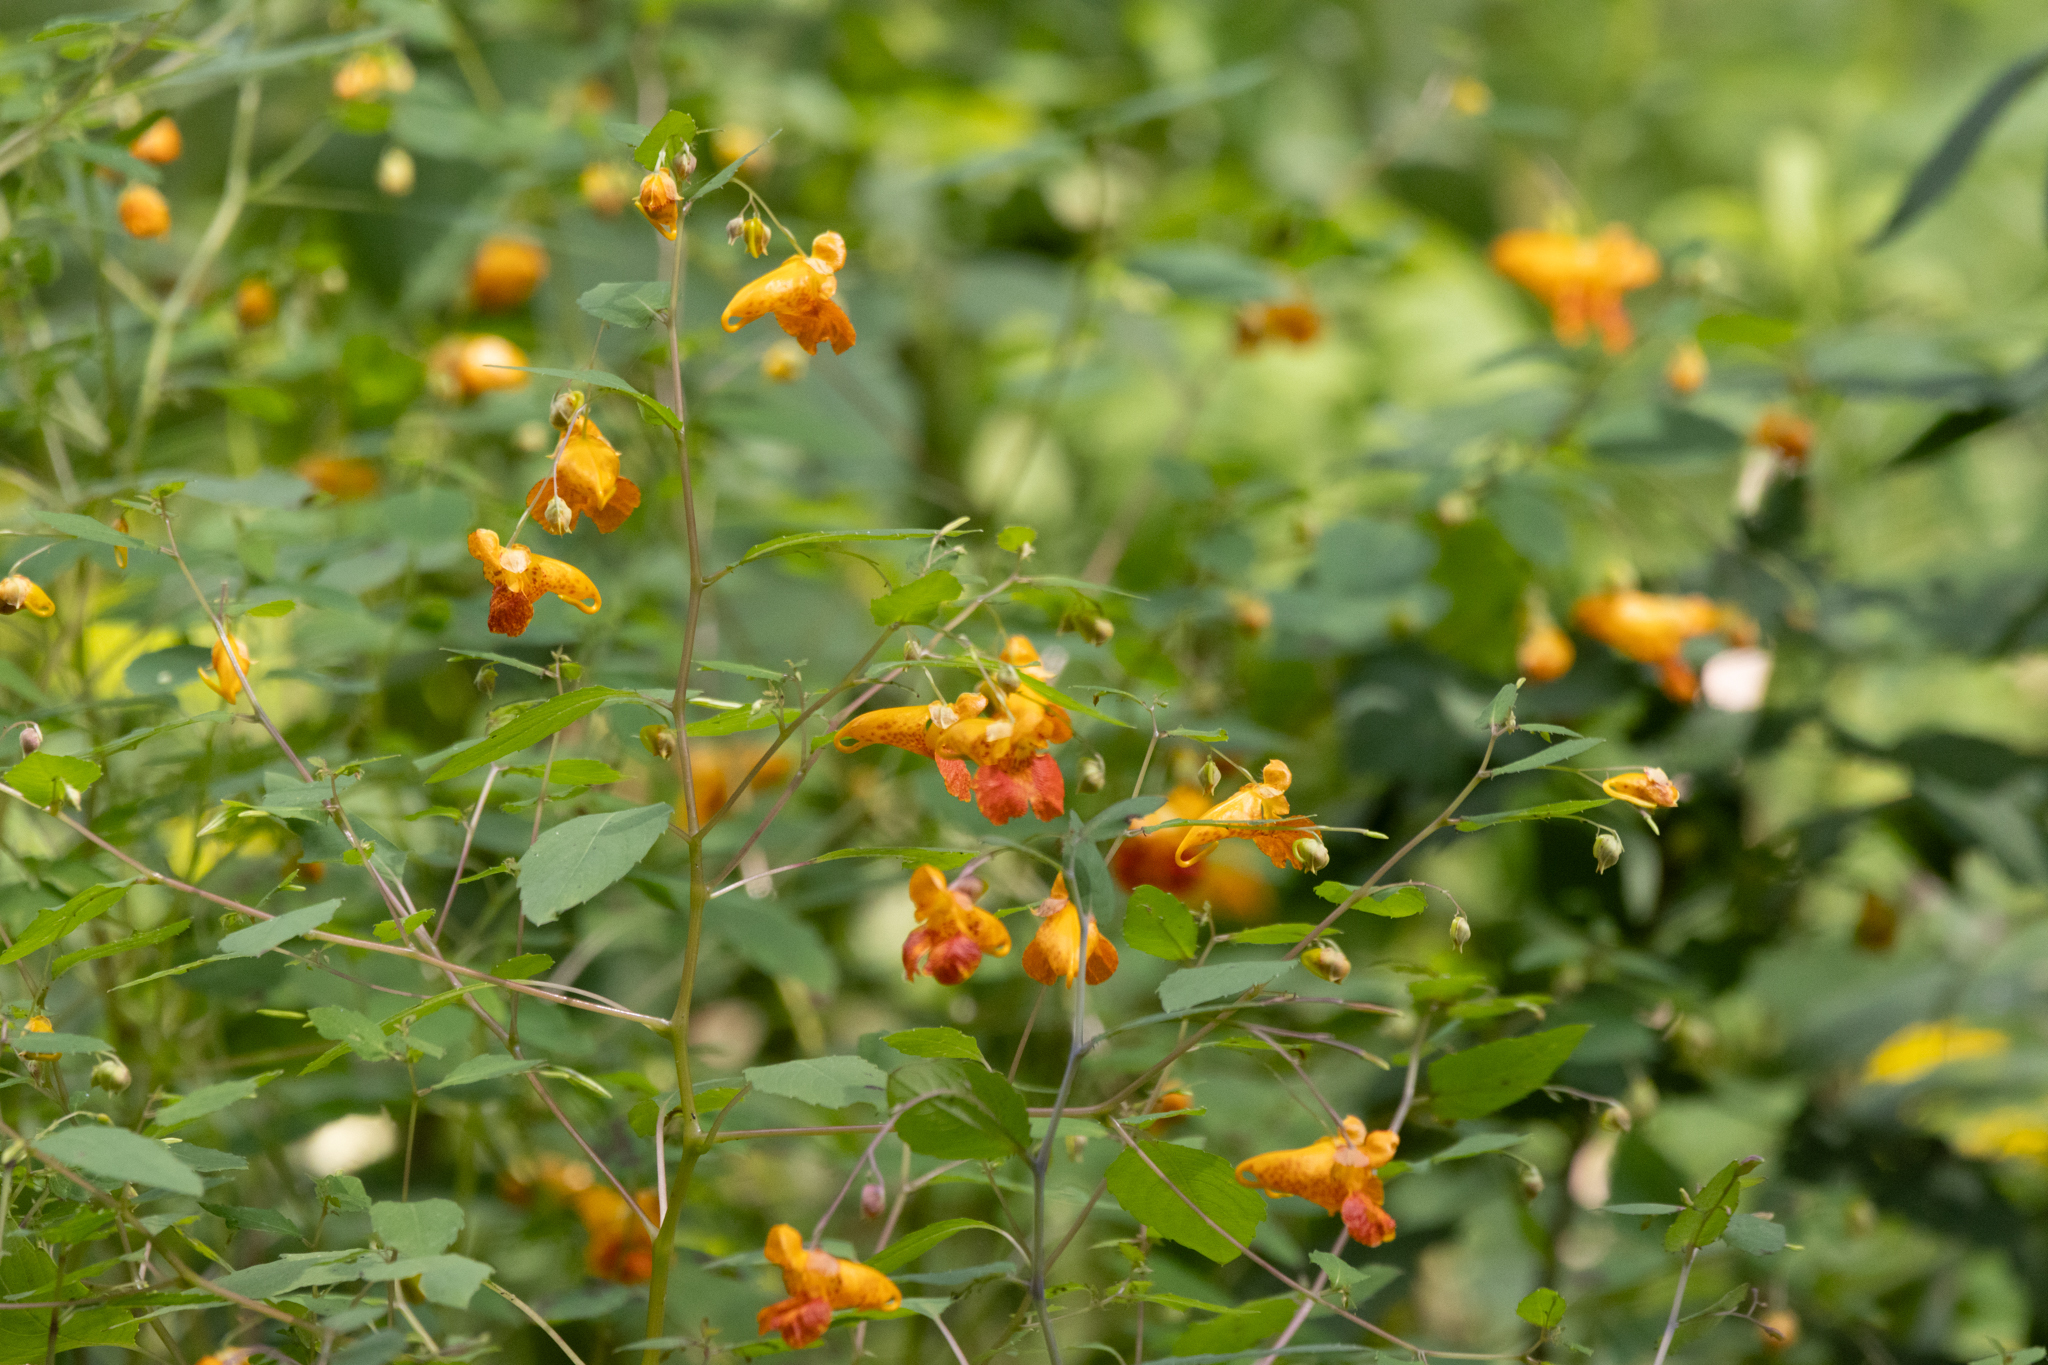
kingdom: Plantae
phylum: Tracheophyta
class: Magnoliopsida
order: Ericales
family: Balsaminaceae
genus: Impatiens
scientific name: Impatiens capensis
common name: Orange balsam
